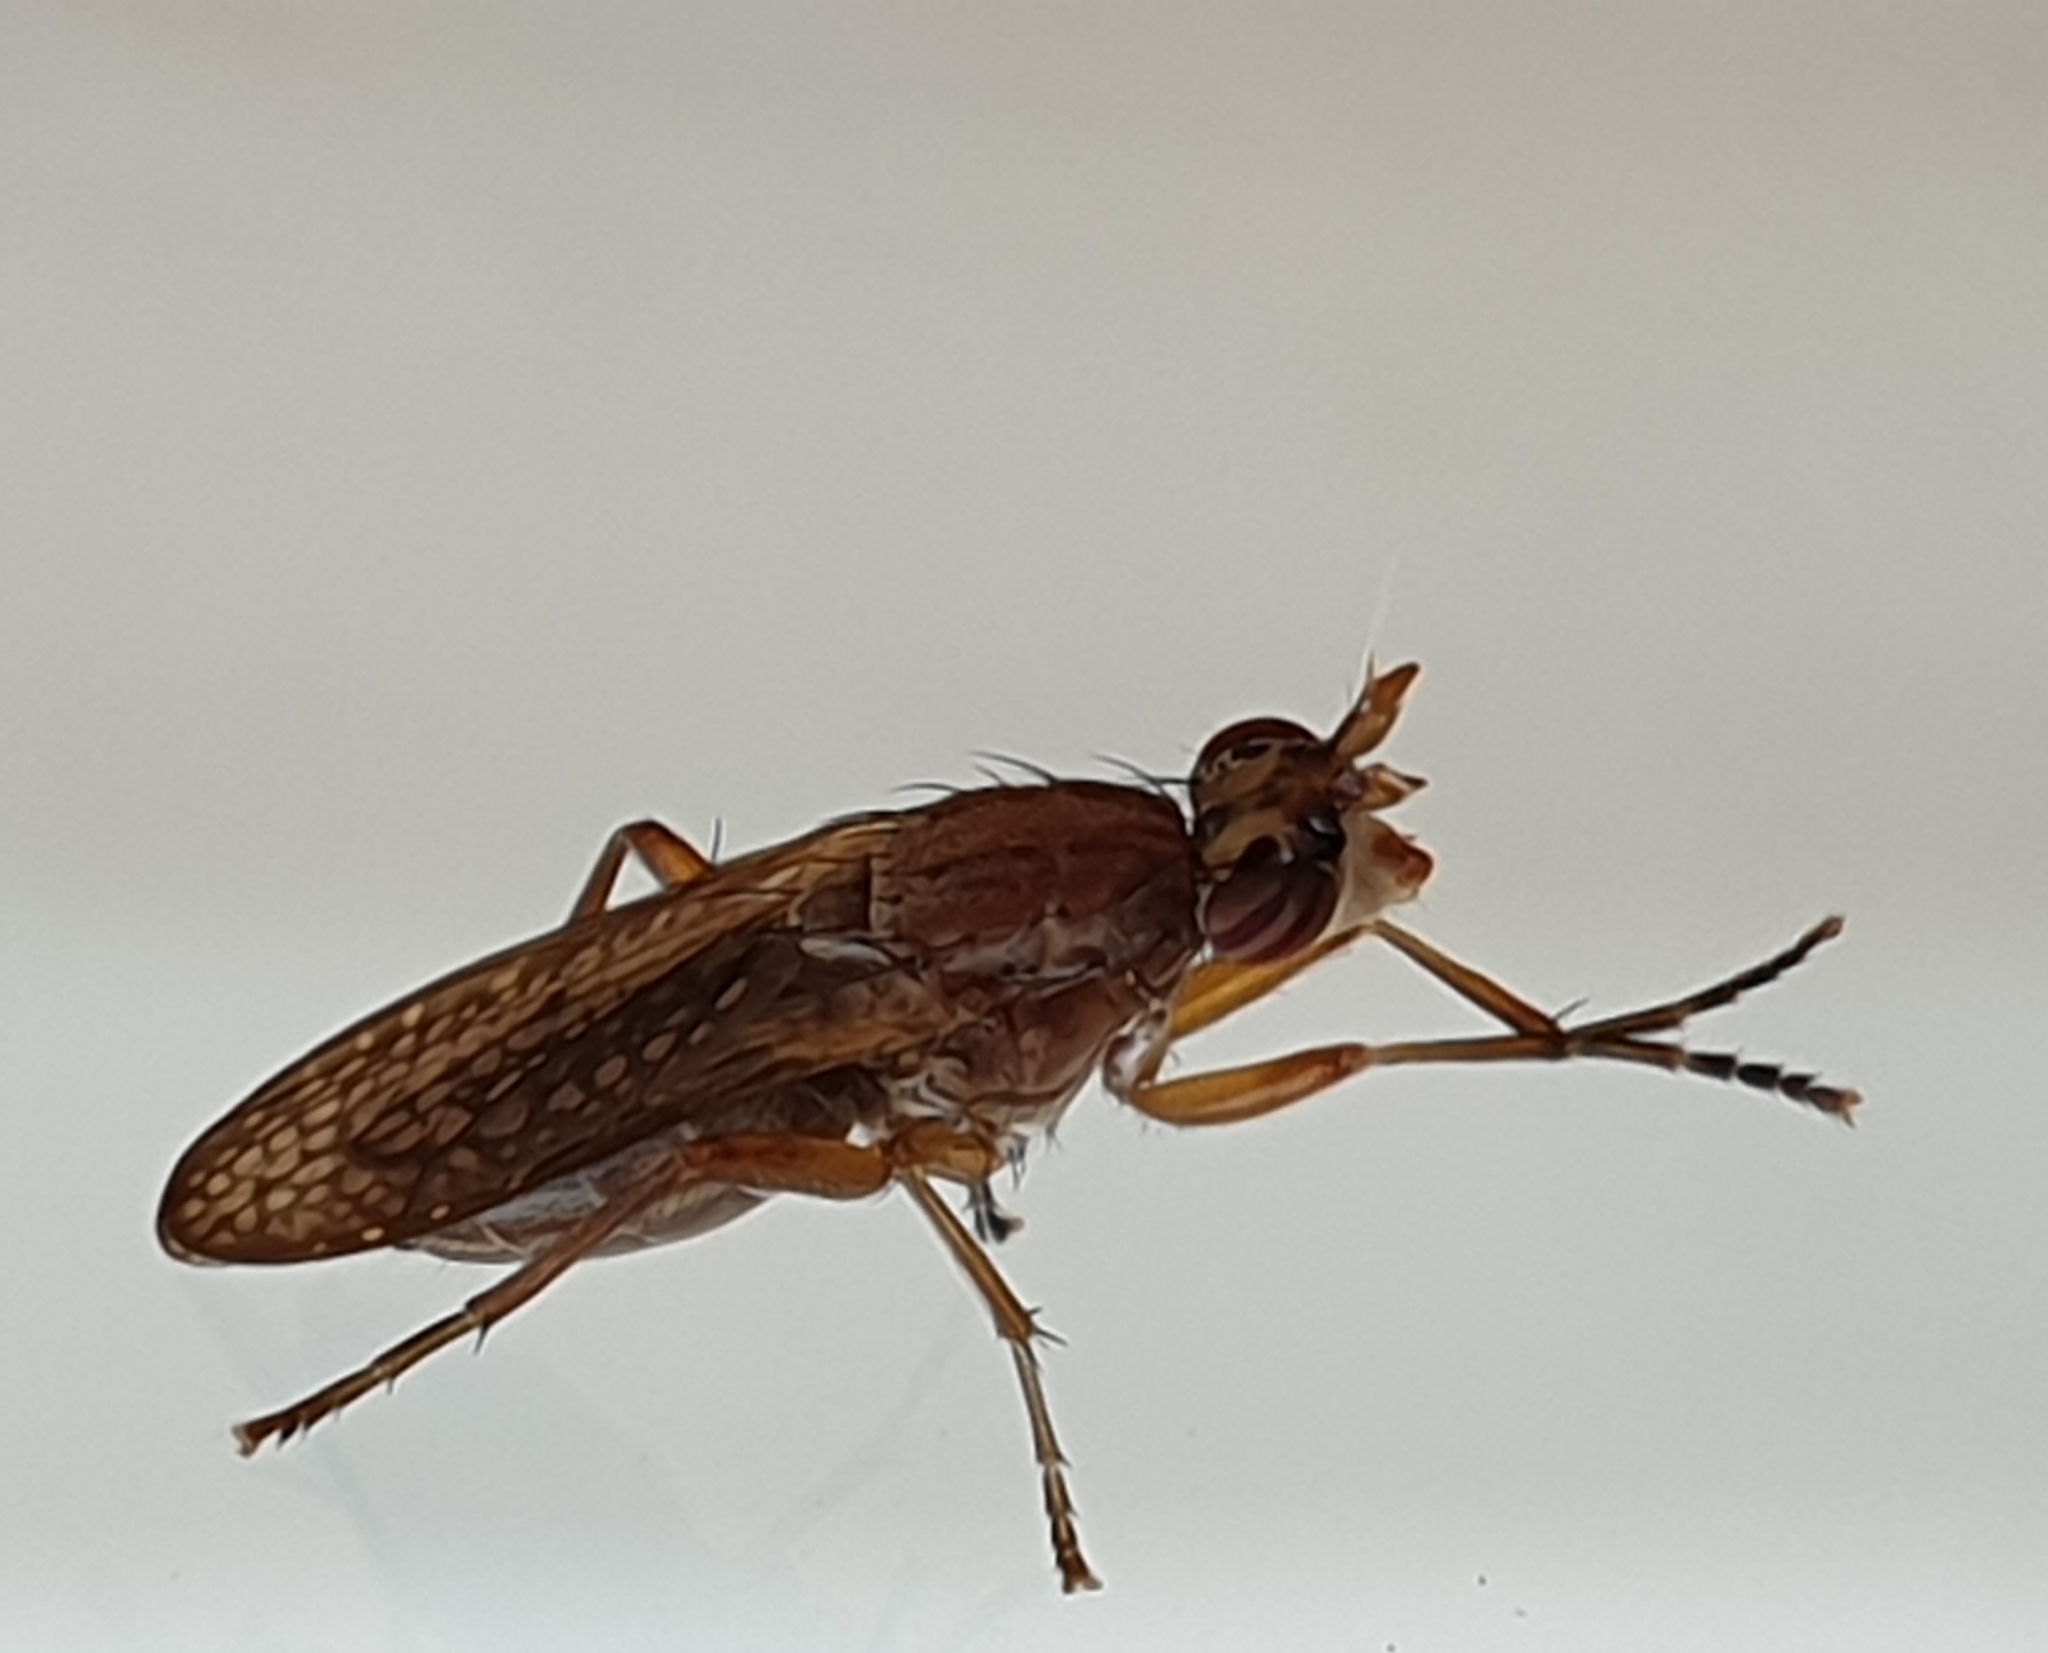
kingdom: Animalia
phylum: Arthropoda
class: Insecta
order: Diptera
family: Sciomyzidae
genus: Euthycera
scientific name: Euthycera fumigata
